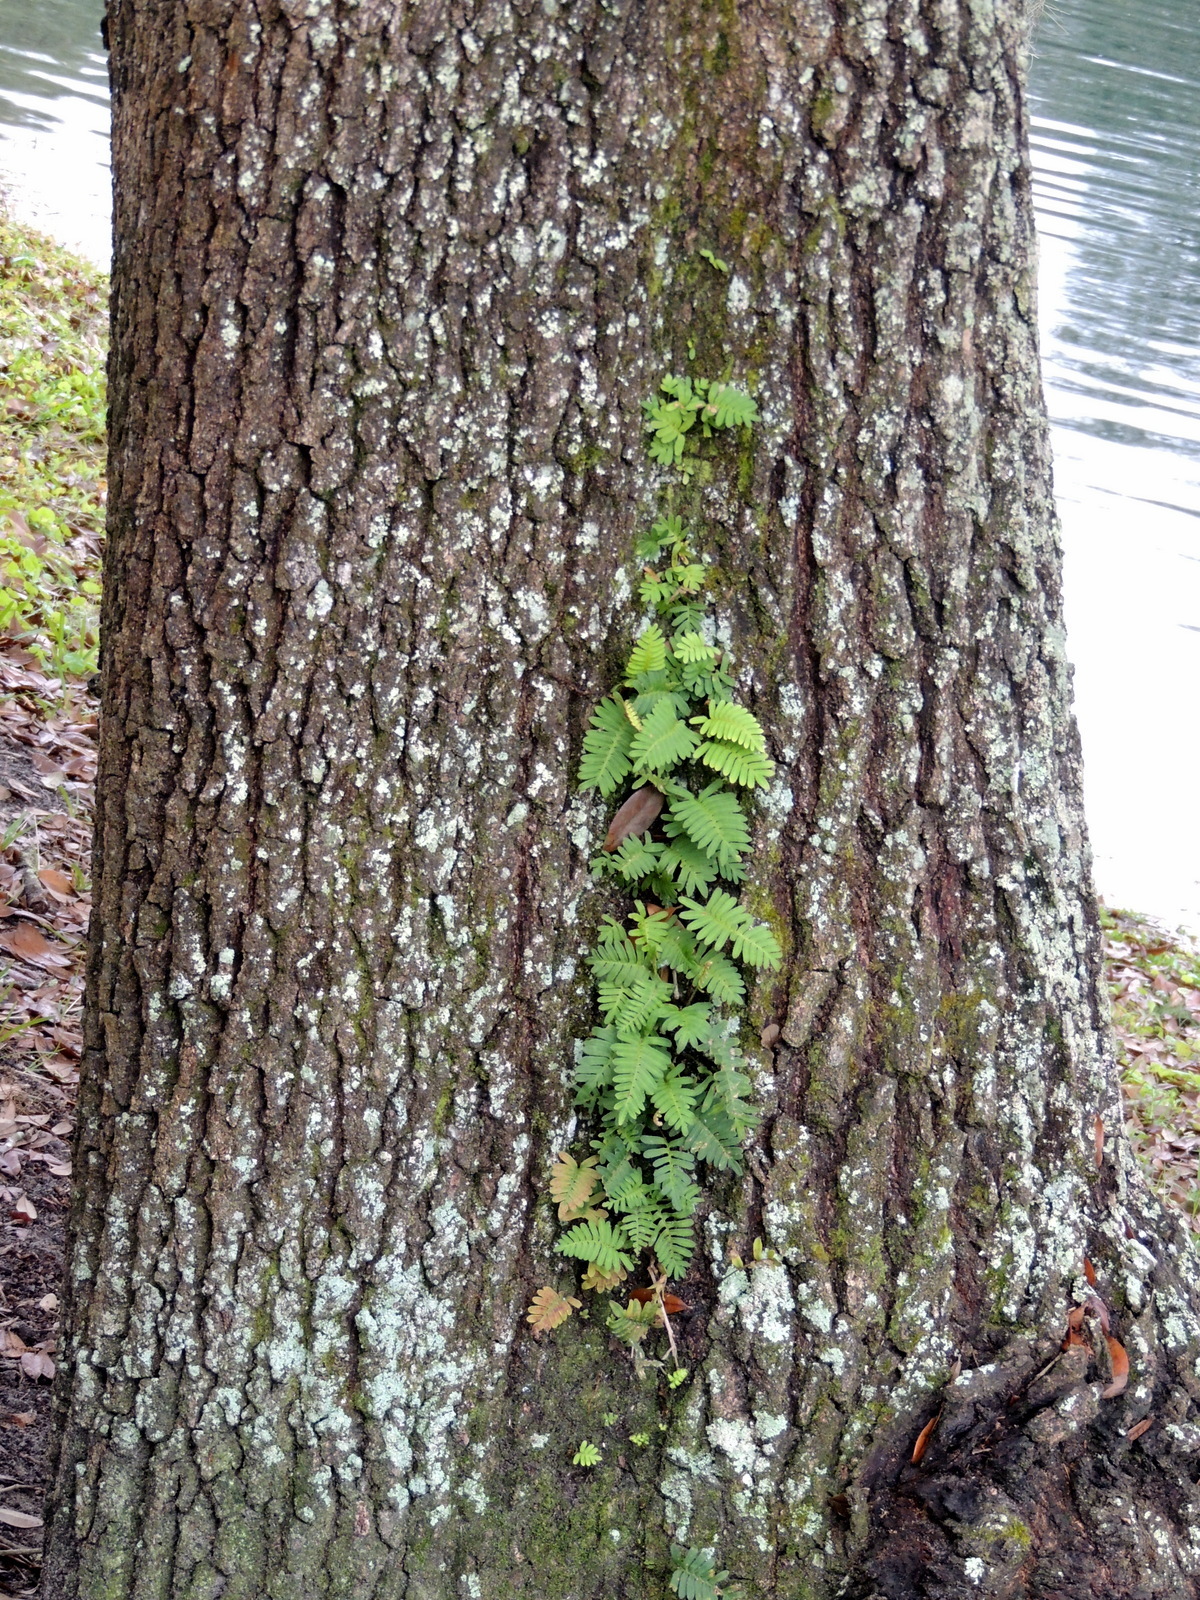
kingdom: Plantae
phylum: Tracheophyta
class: Polypodiopsida
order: Polypodiales
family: Polypodiaceae
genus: Pleopeltis
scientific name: Pleopeltis michauxiana
